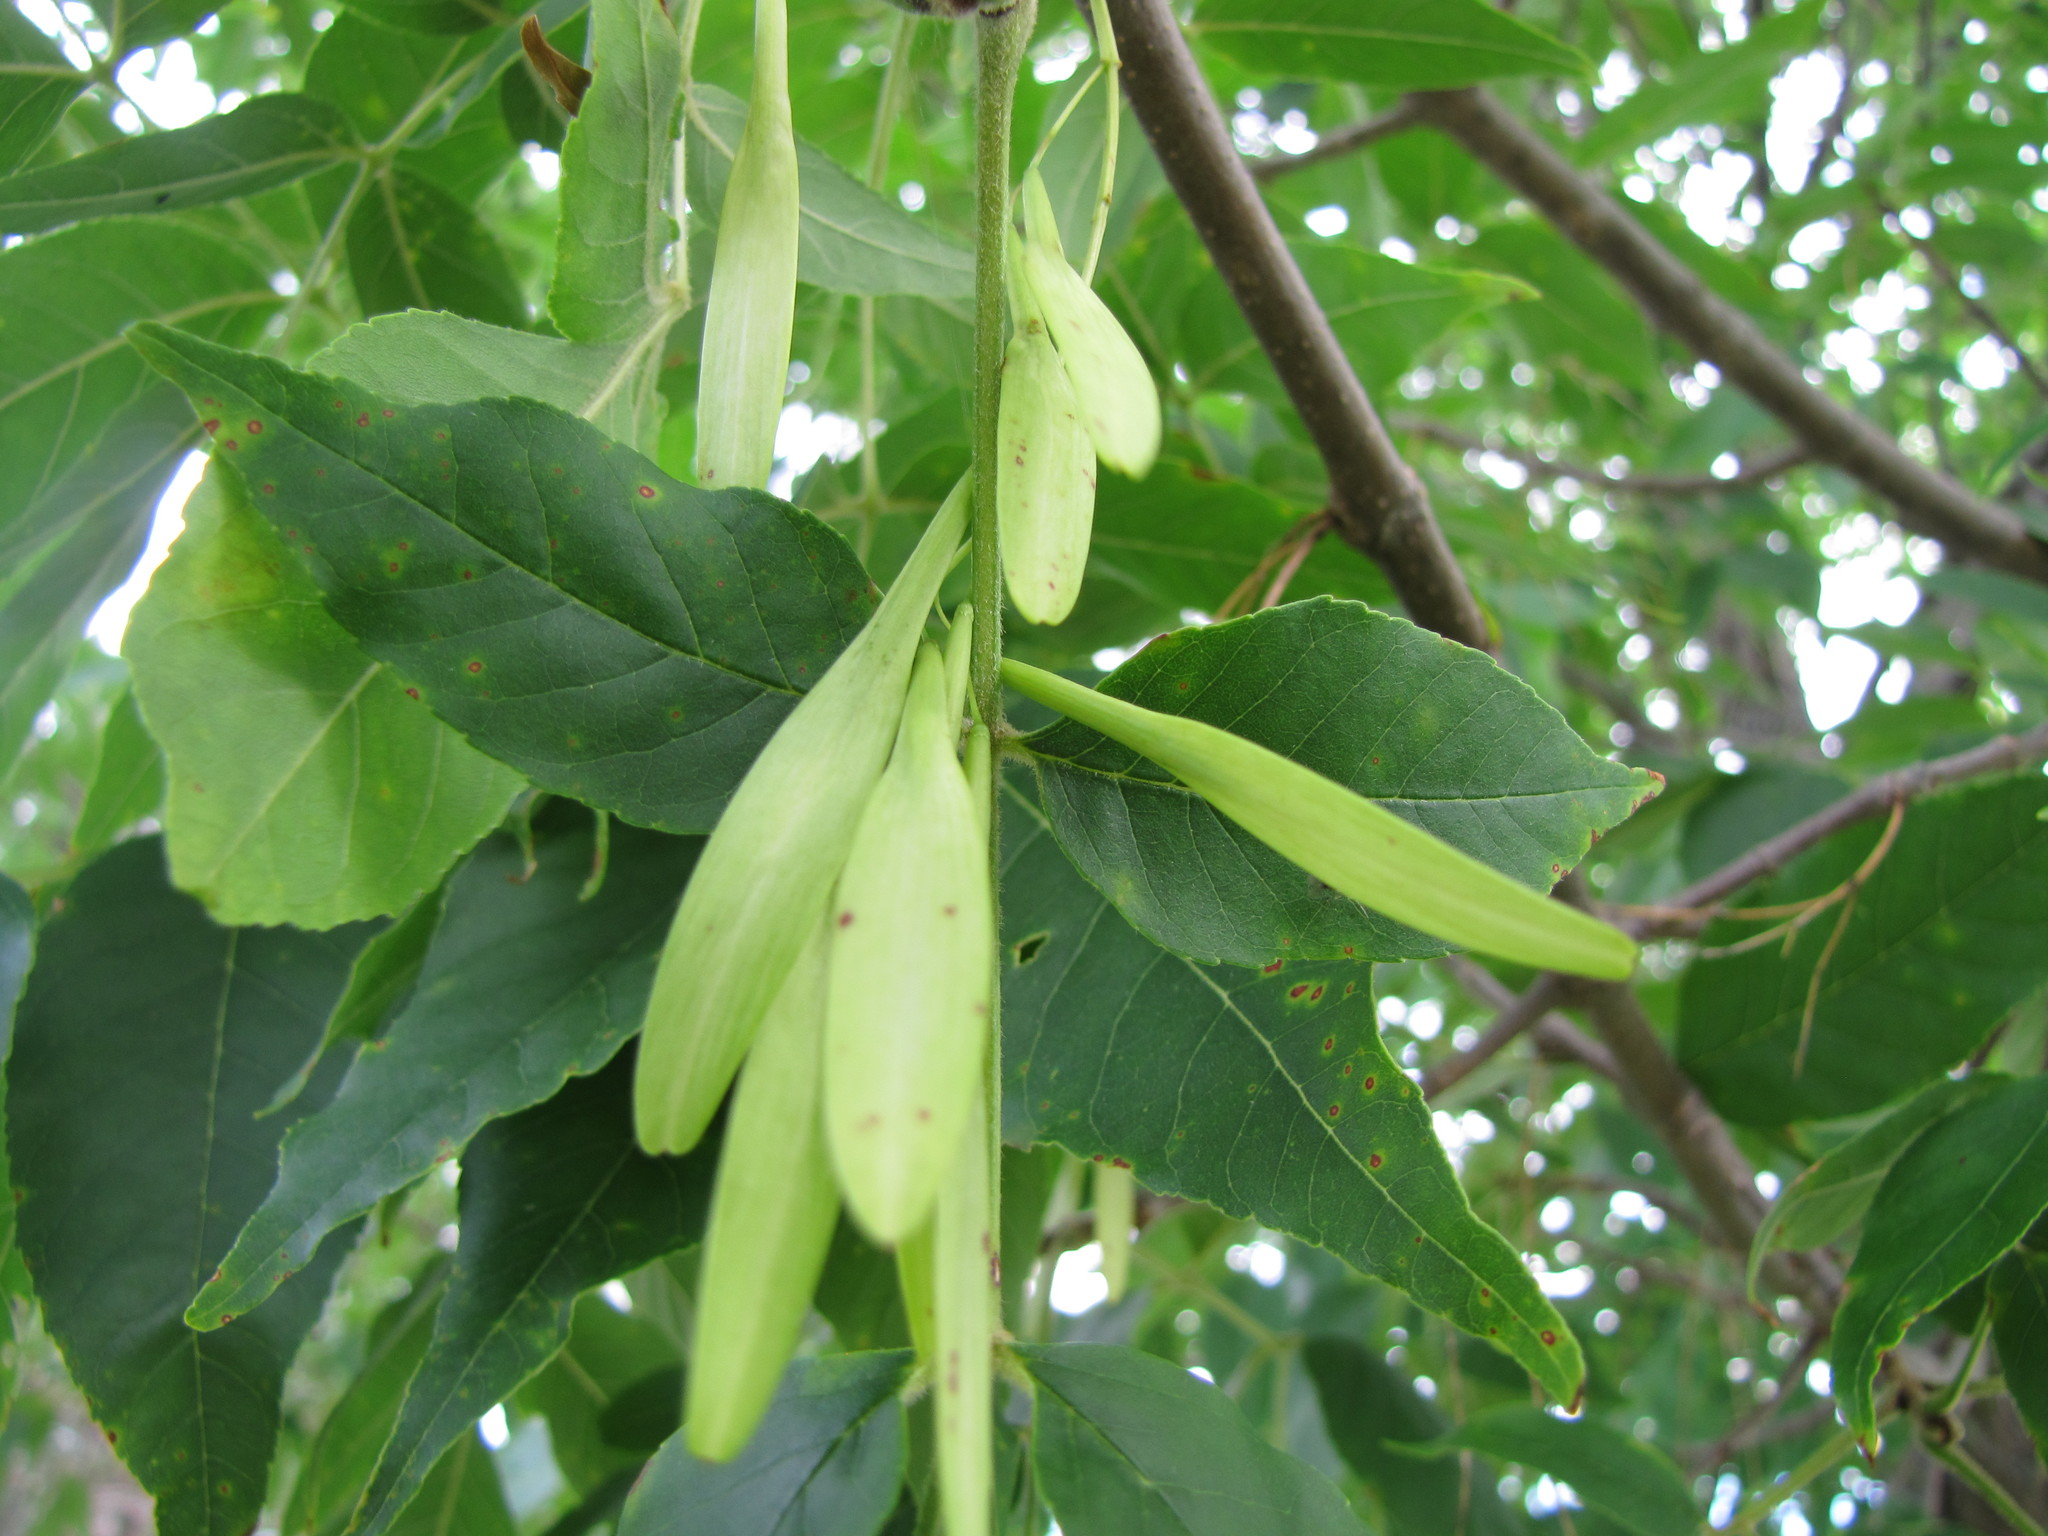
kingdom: Plantae
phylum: Tracheophyta
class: Magnoliopsida
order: Lamiales
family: Oleaceae
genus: Fraxinus
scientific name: Fraxinus pennsylvanica
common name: Green ash
